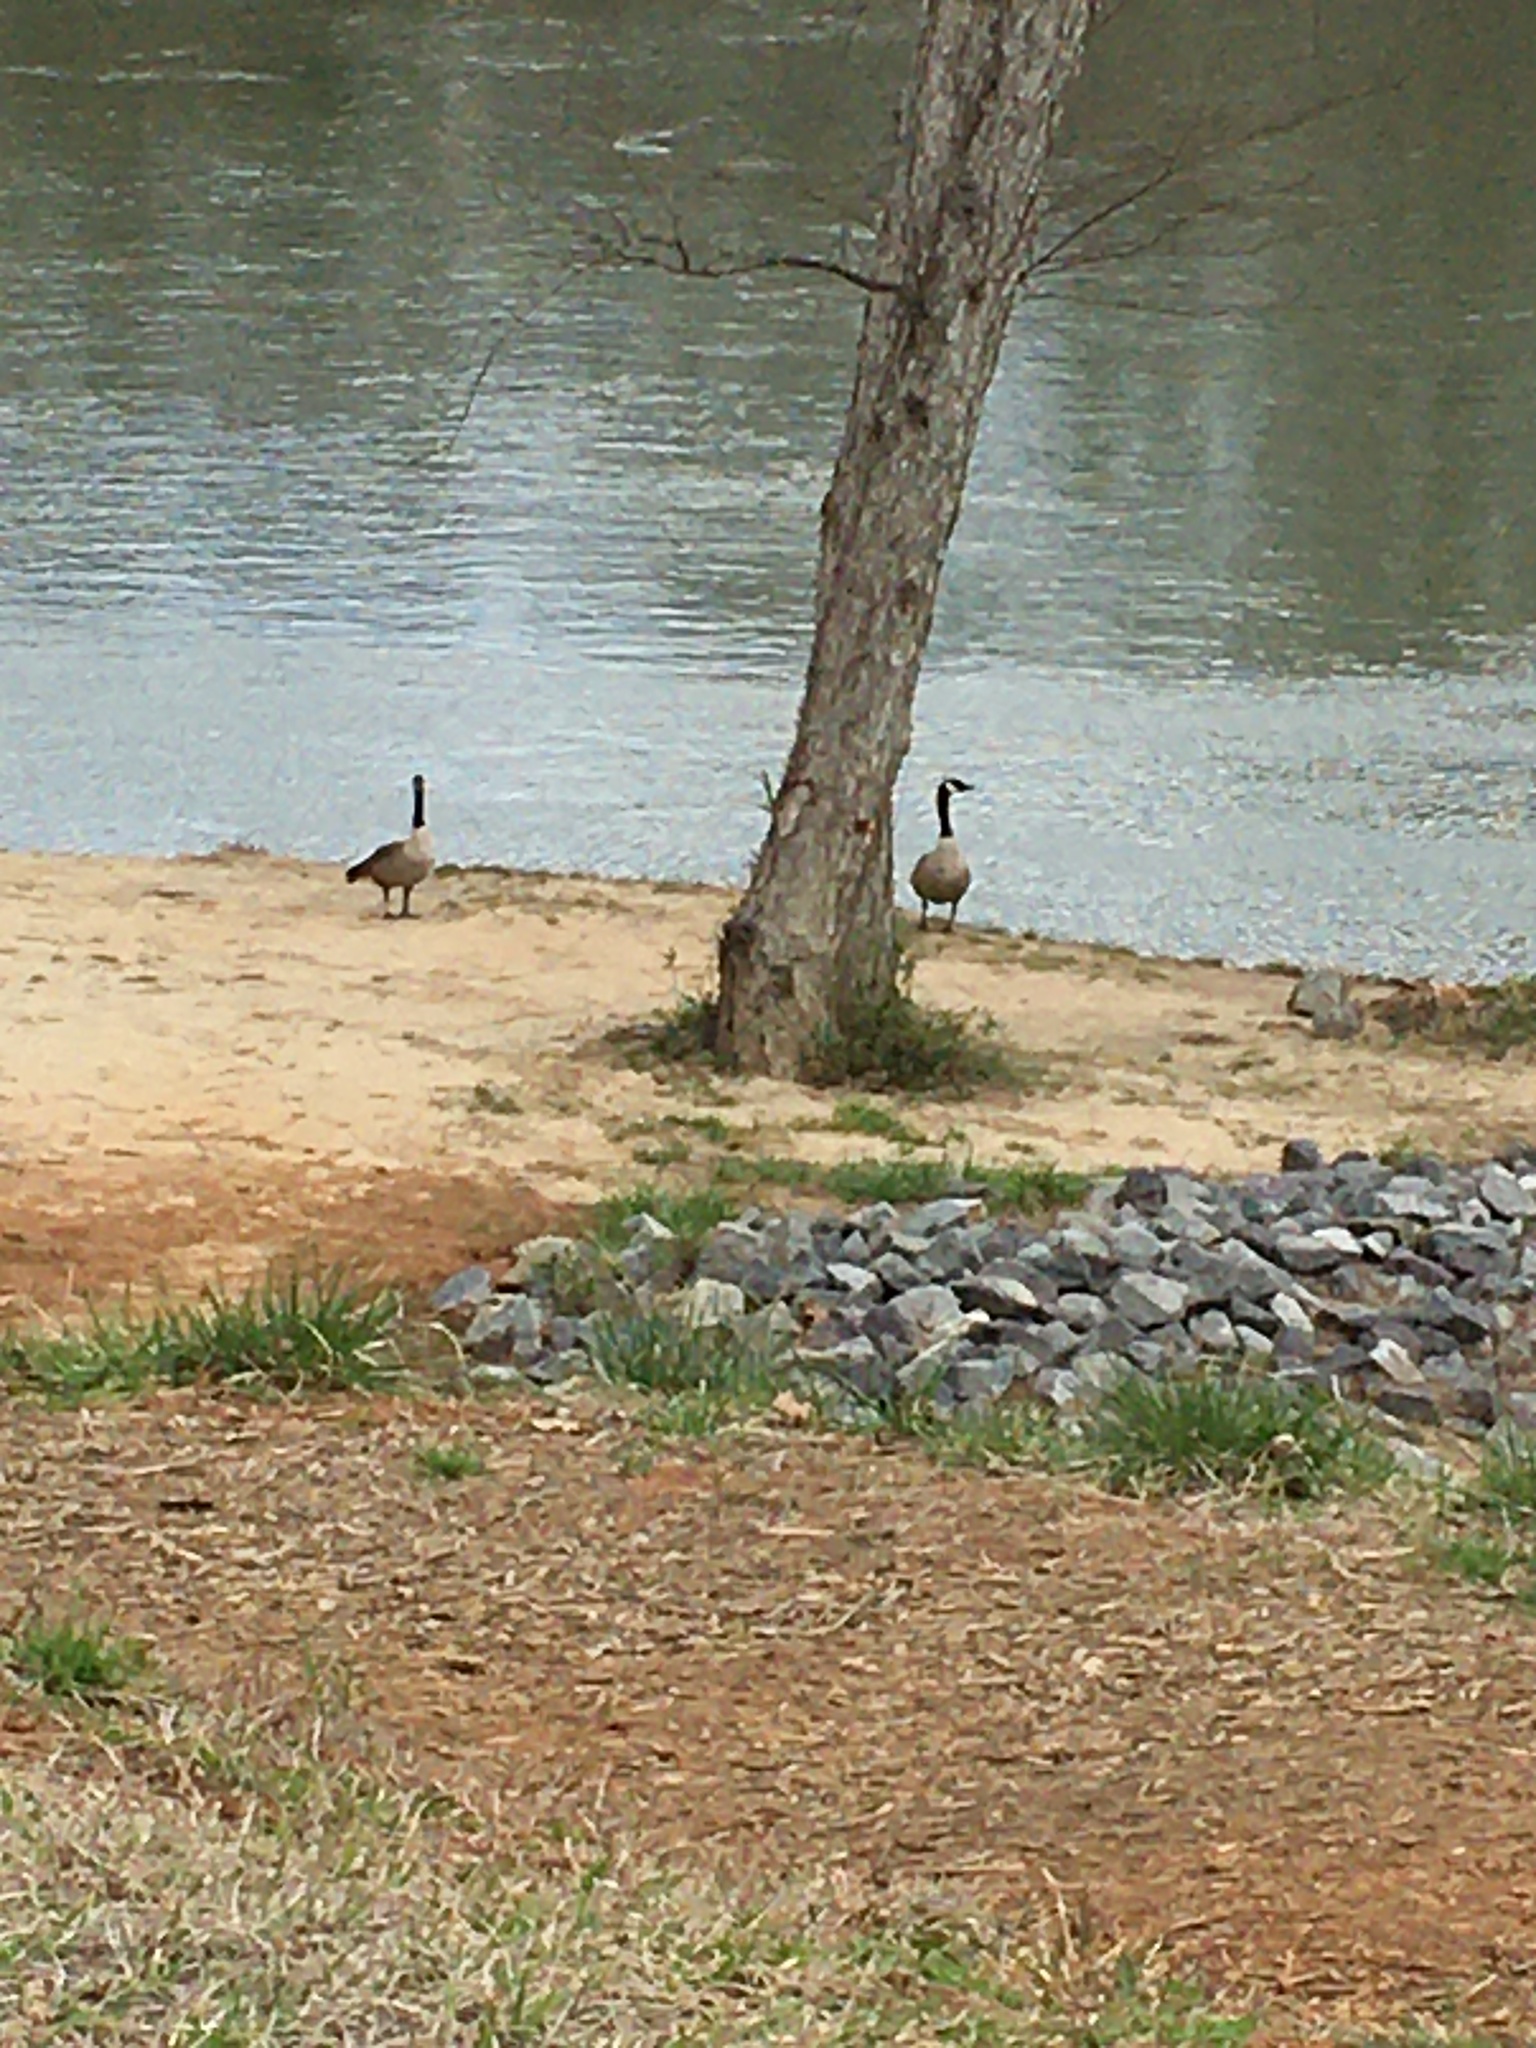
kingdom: Animalia
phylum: Chordata
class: Aves
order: Anseriformes
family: Anatidae
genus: Branta
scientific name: Branta canadensis
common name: Canada goose
